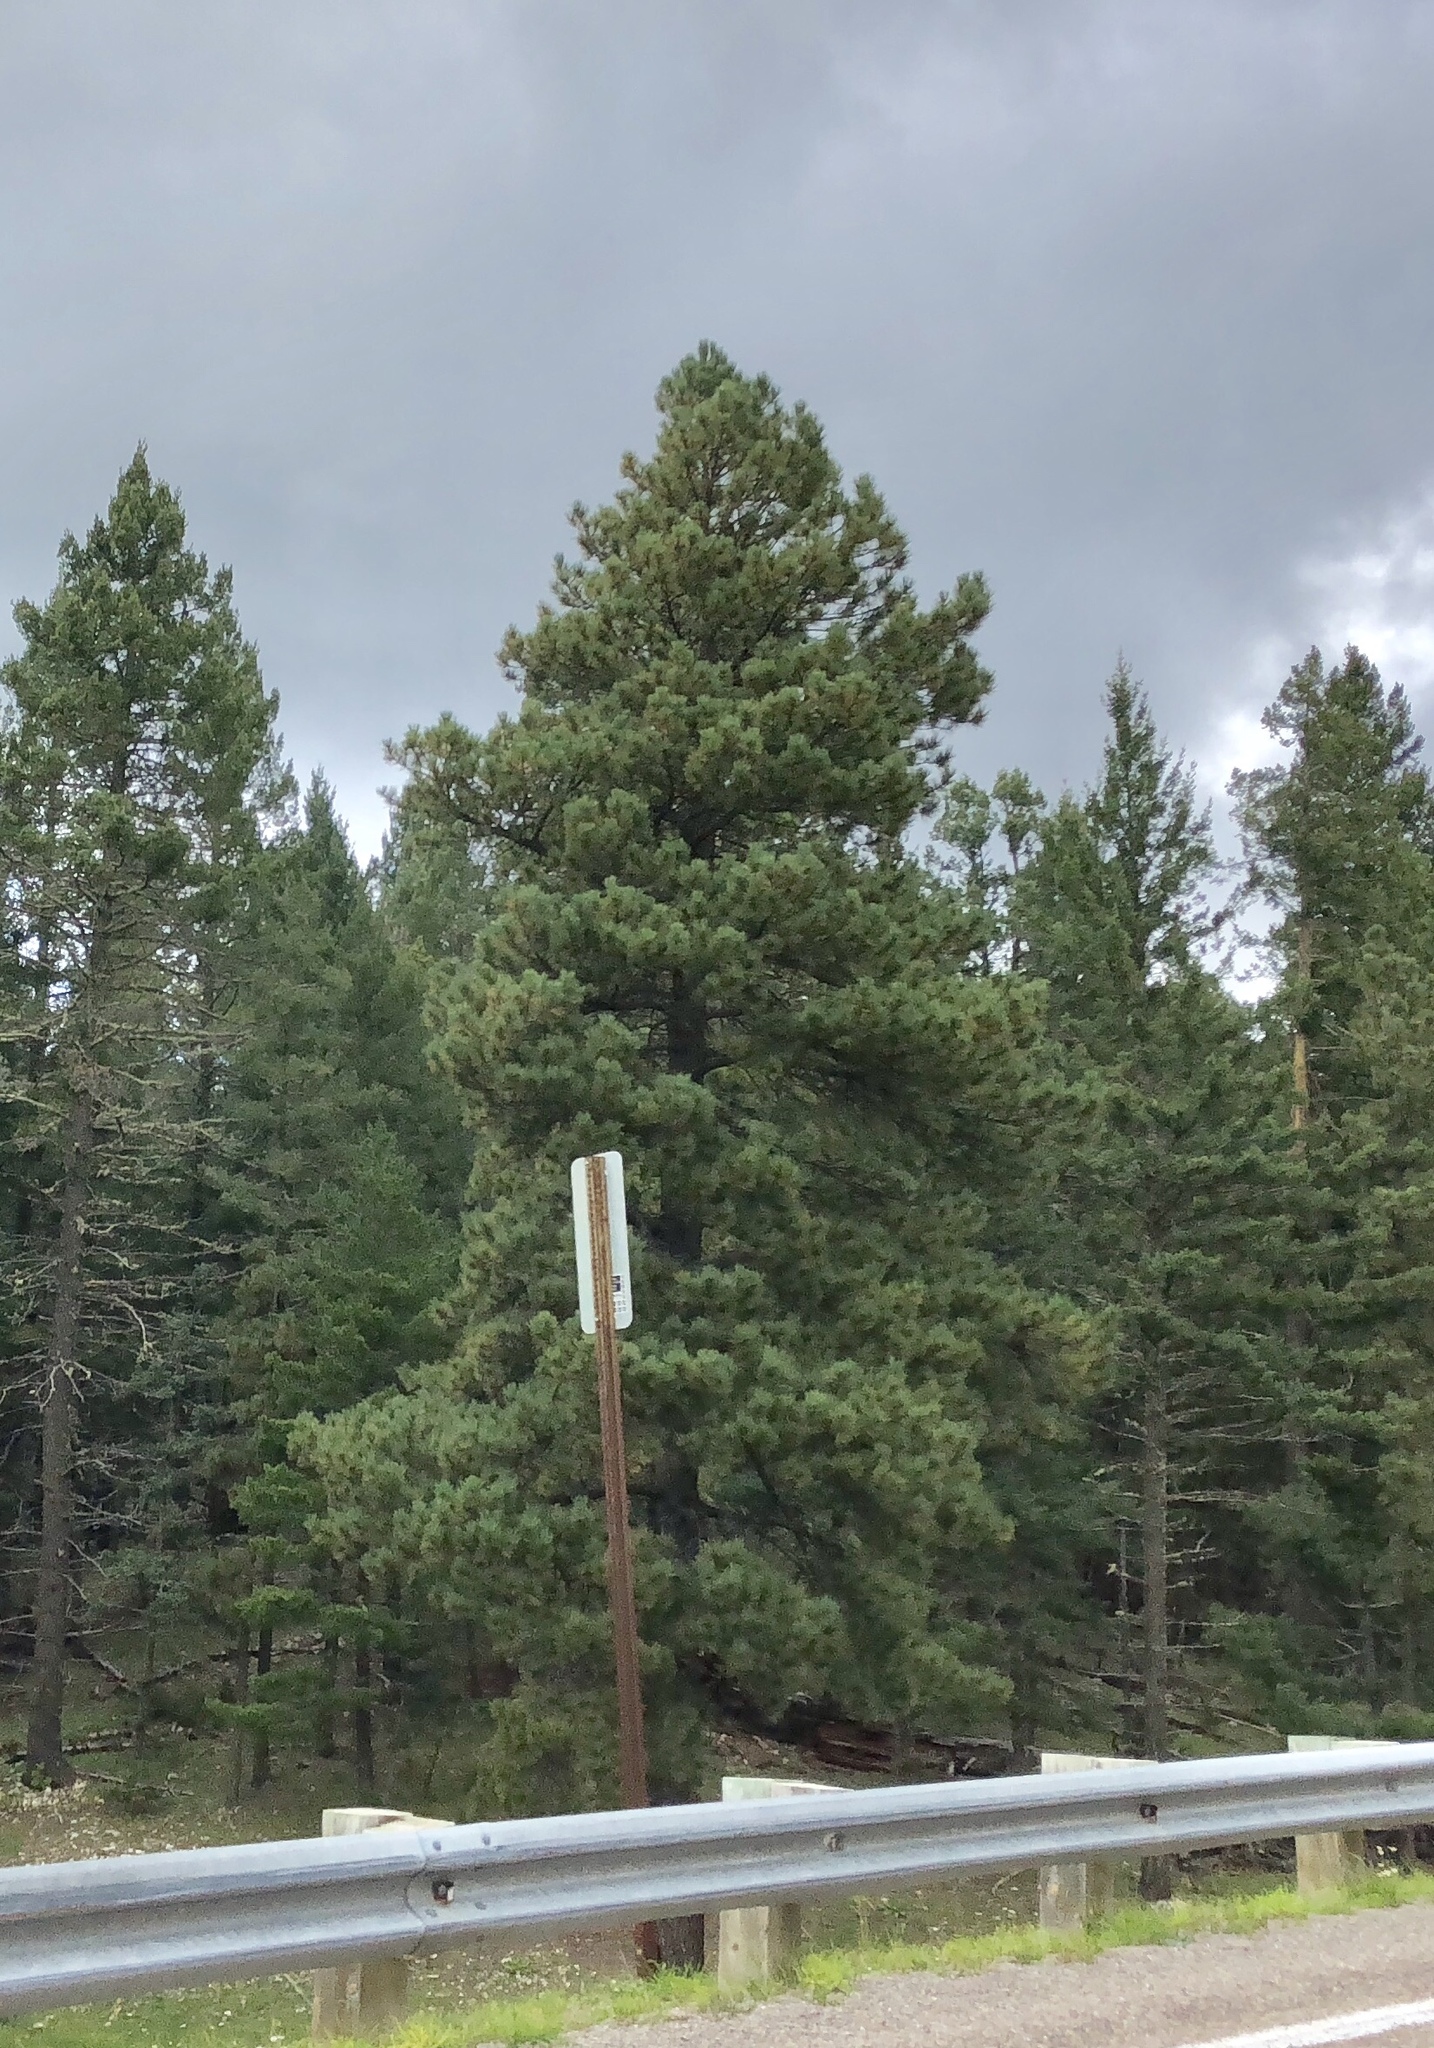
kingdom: Plantae
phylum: Tracheophyta
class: Pinopsida
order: Pinales
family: Pinaceae
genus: Pinus
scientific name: Pinus ponderosa
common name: Western yellow-pine
